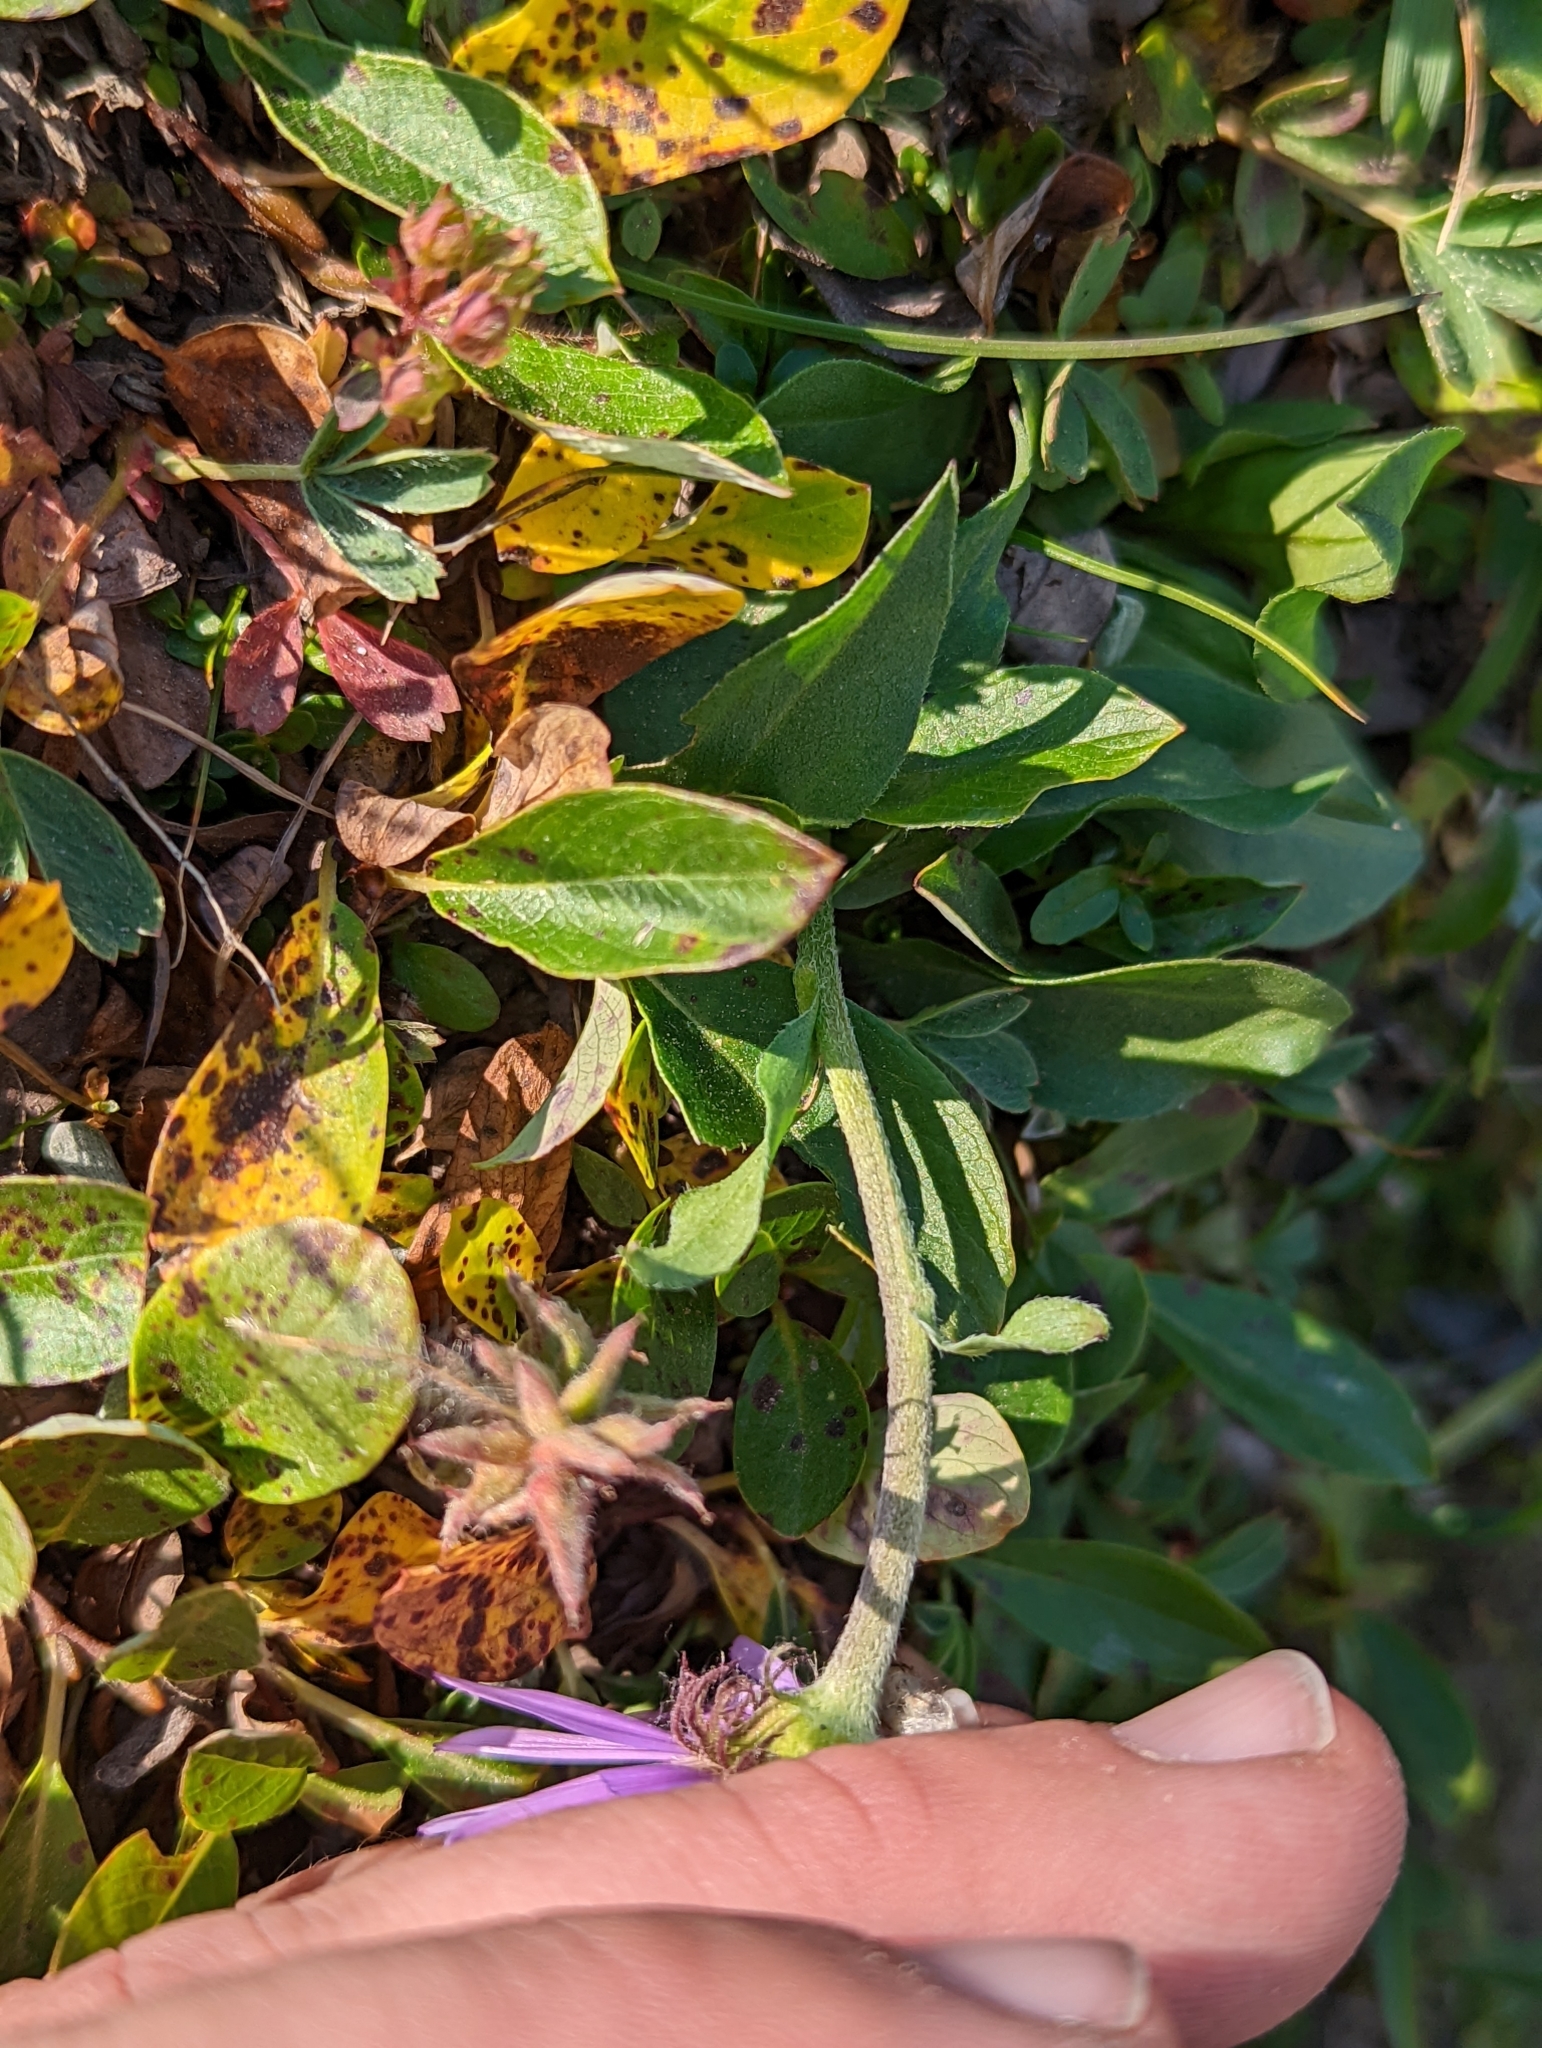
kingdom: Plantae
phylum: Tracheophyta
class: Magnoliopsida
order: Asterales
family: Asteraceae
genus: Erigeron
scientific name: Erigeron glacialis
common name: Subalpine fleabane
